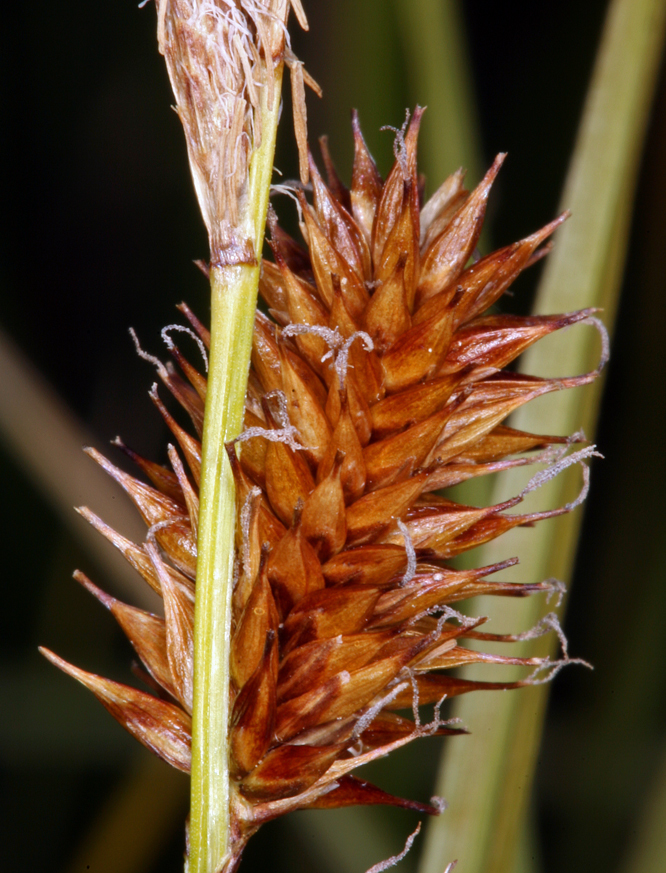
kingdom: Plantae
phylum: Tracheophyta
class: Liliopsida
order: Poales
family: Cyperaceae
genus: Carex
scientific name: Carex utriculata
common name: Beaked sedge
